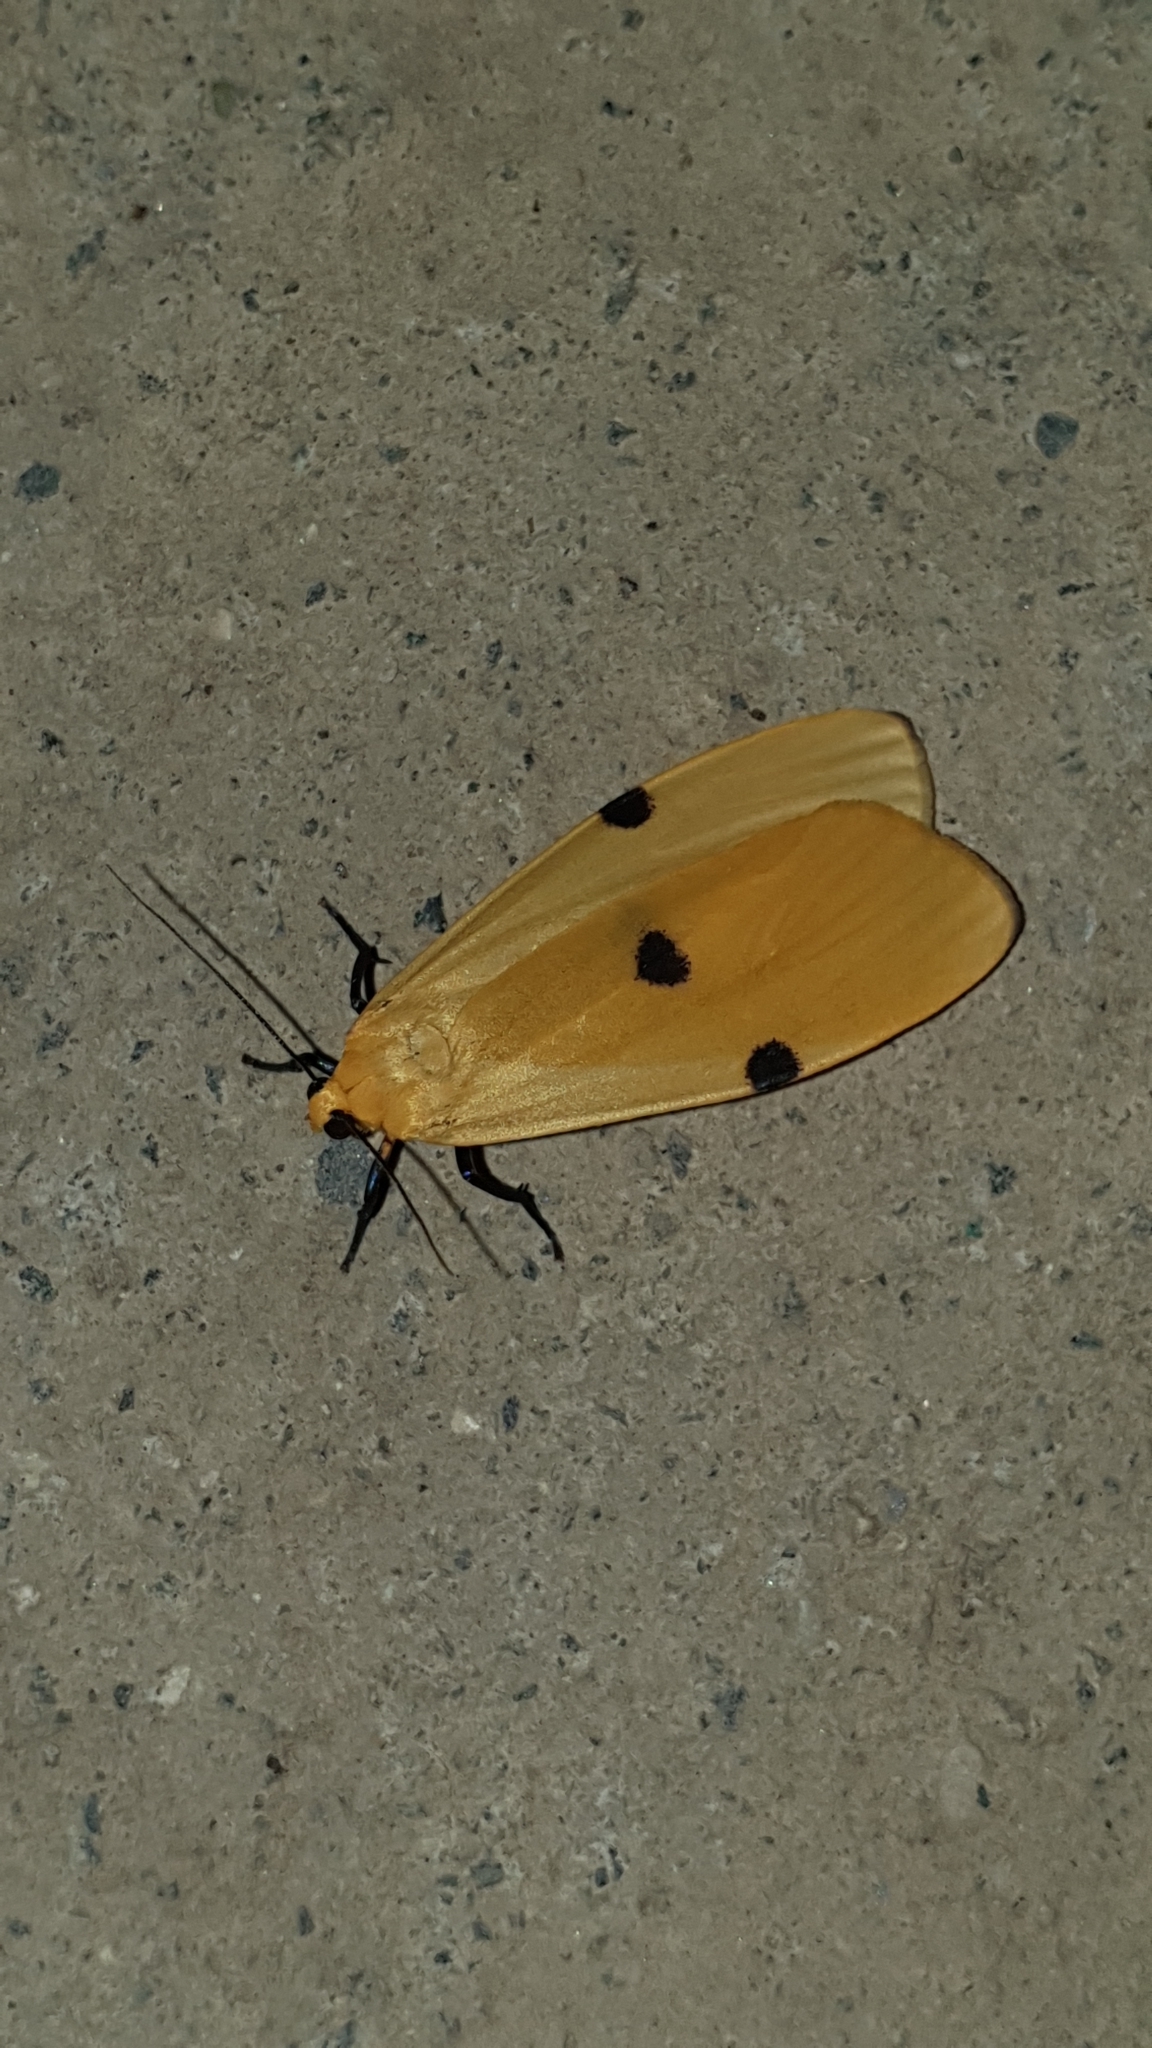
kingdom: Animalia
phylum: Arthropoda
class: Insecta
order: Lepidoptera
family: Erebidae
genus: Lithosia
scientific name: Lithosia quadra
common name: Four-spotted footman
